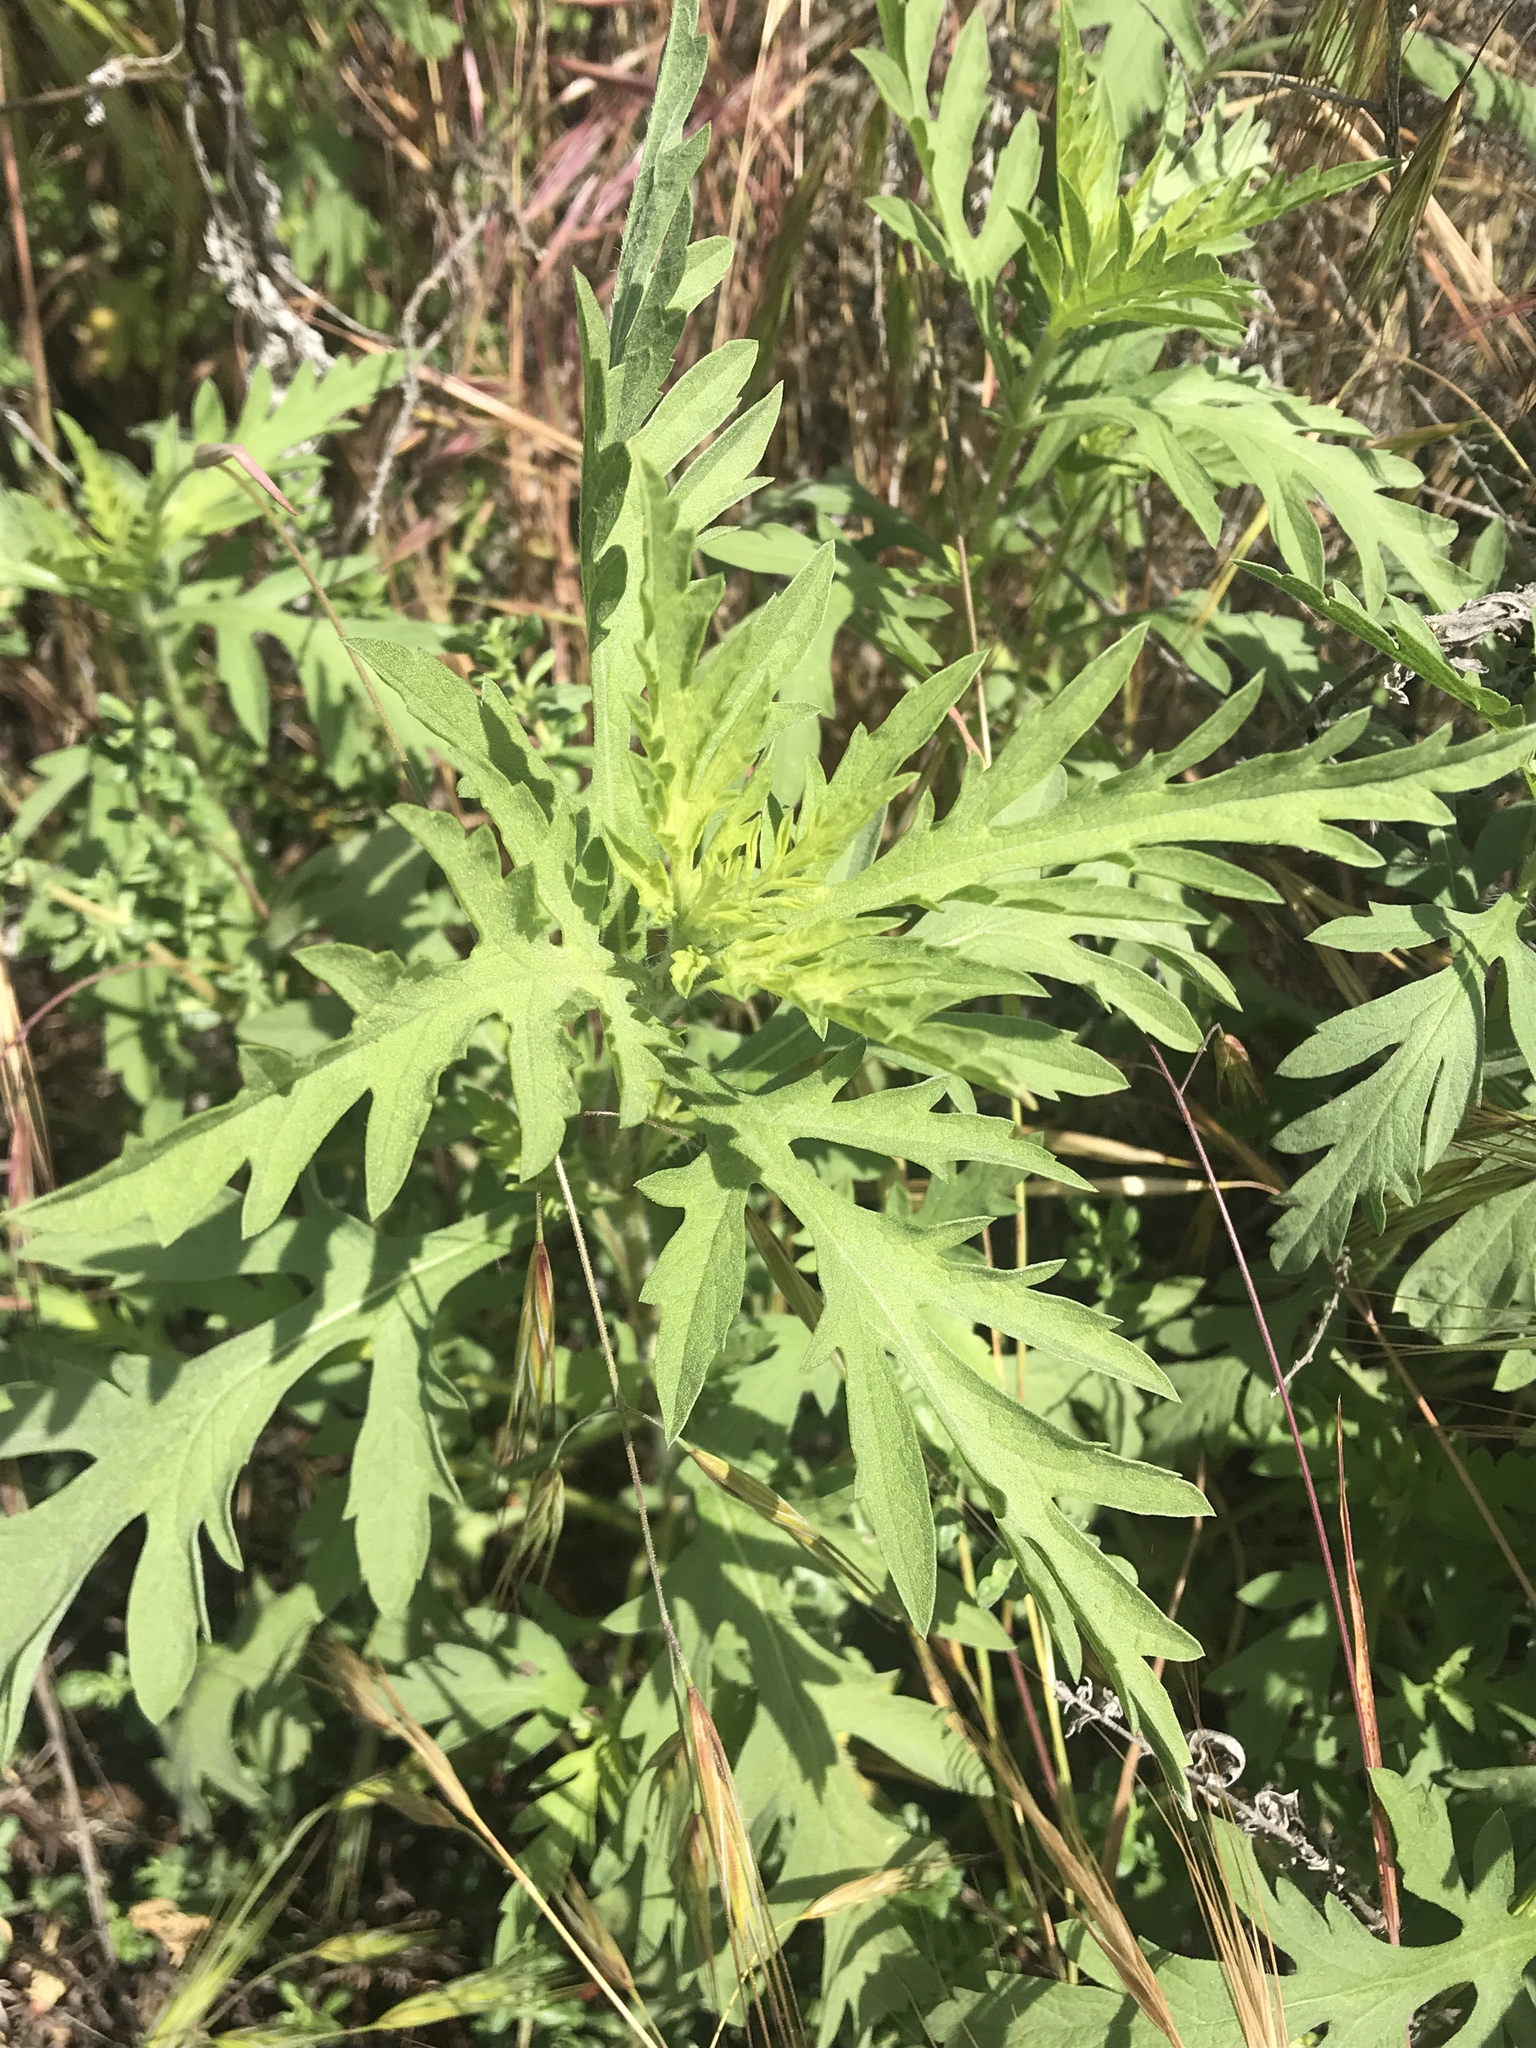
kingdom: Plantae
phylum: Tracheophyta
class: Magnoliopsida
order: Asterales
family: Asteraceae
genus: Ambrosia
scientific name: Ambrosia psilostachya
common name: Perennial ragweed
